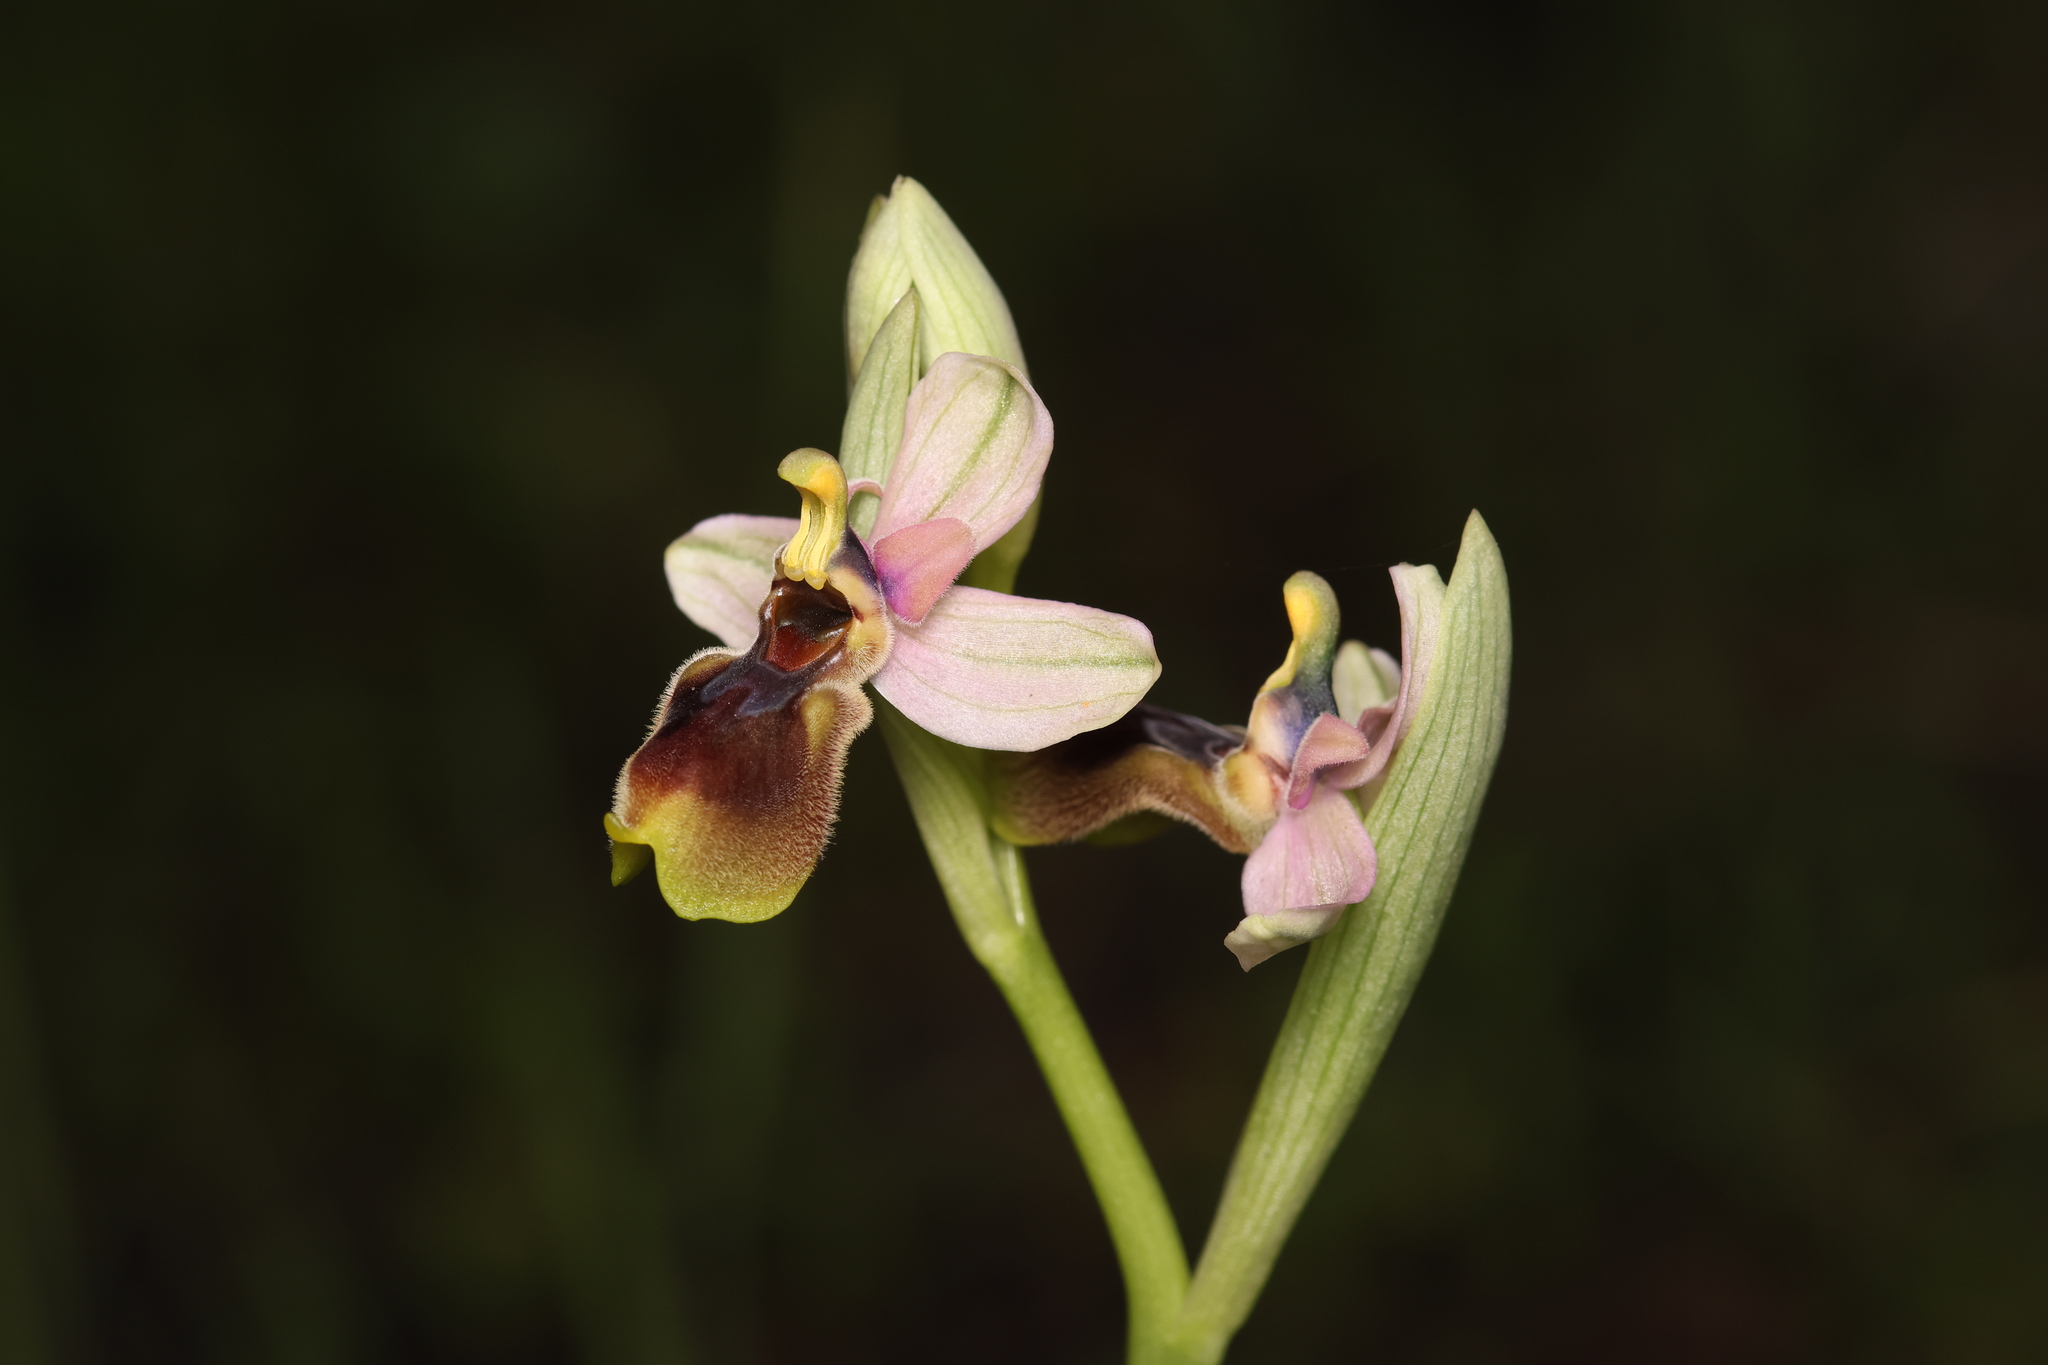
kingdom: Plantae
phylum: Tracheophyta
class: Liliopsida
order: Asparagales
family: Orchidaceae
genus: Ophrys
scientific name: Ophrys tenthredinifera
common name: Sawfly orchid
